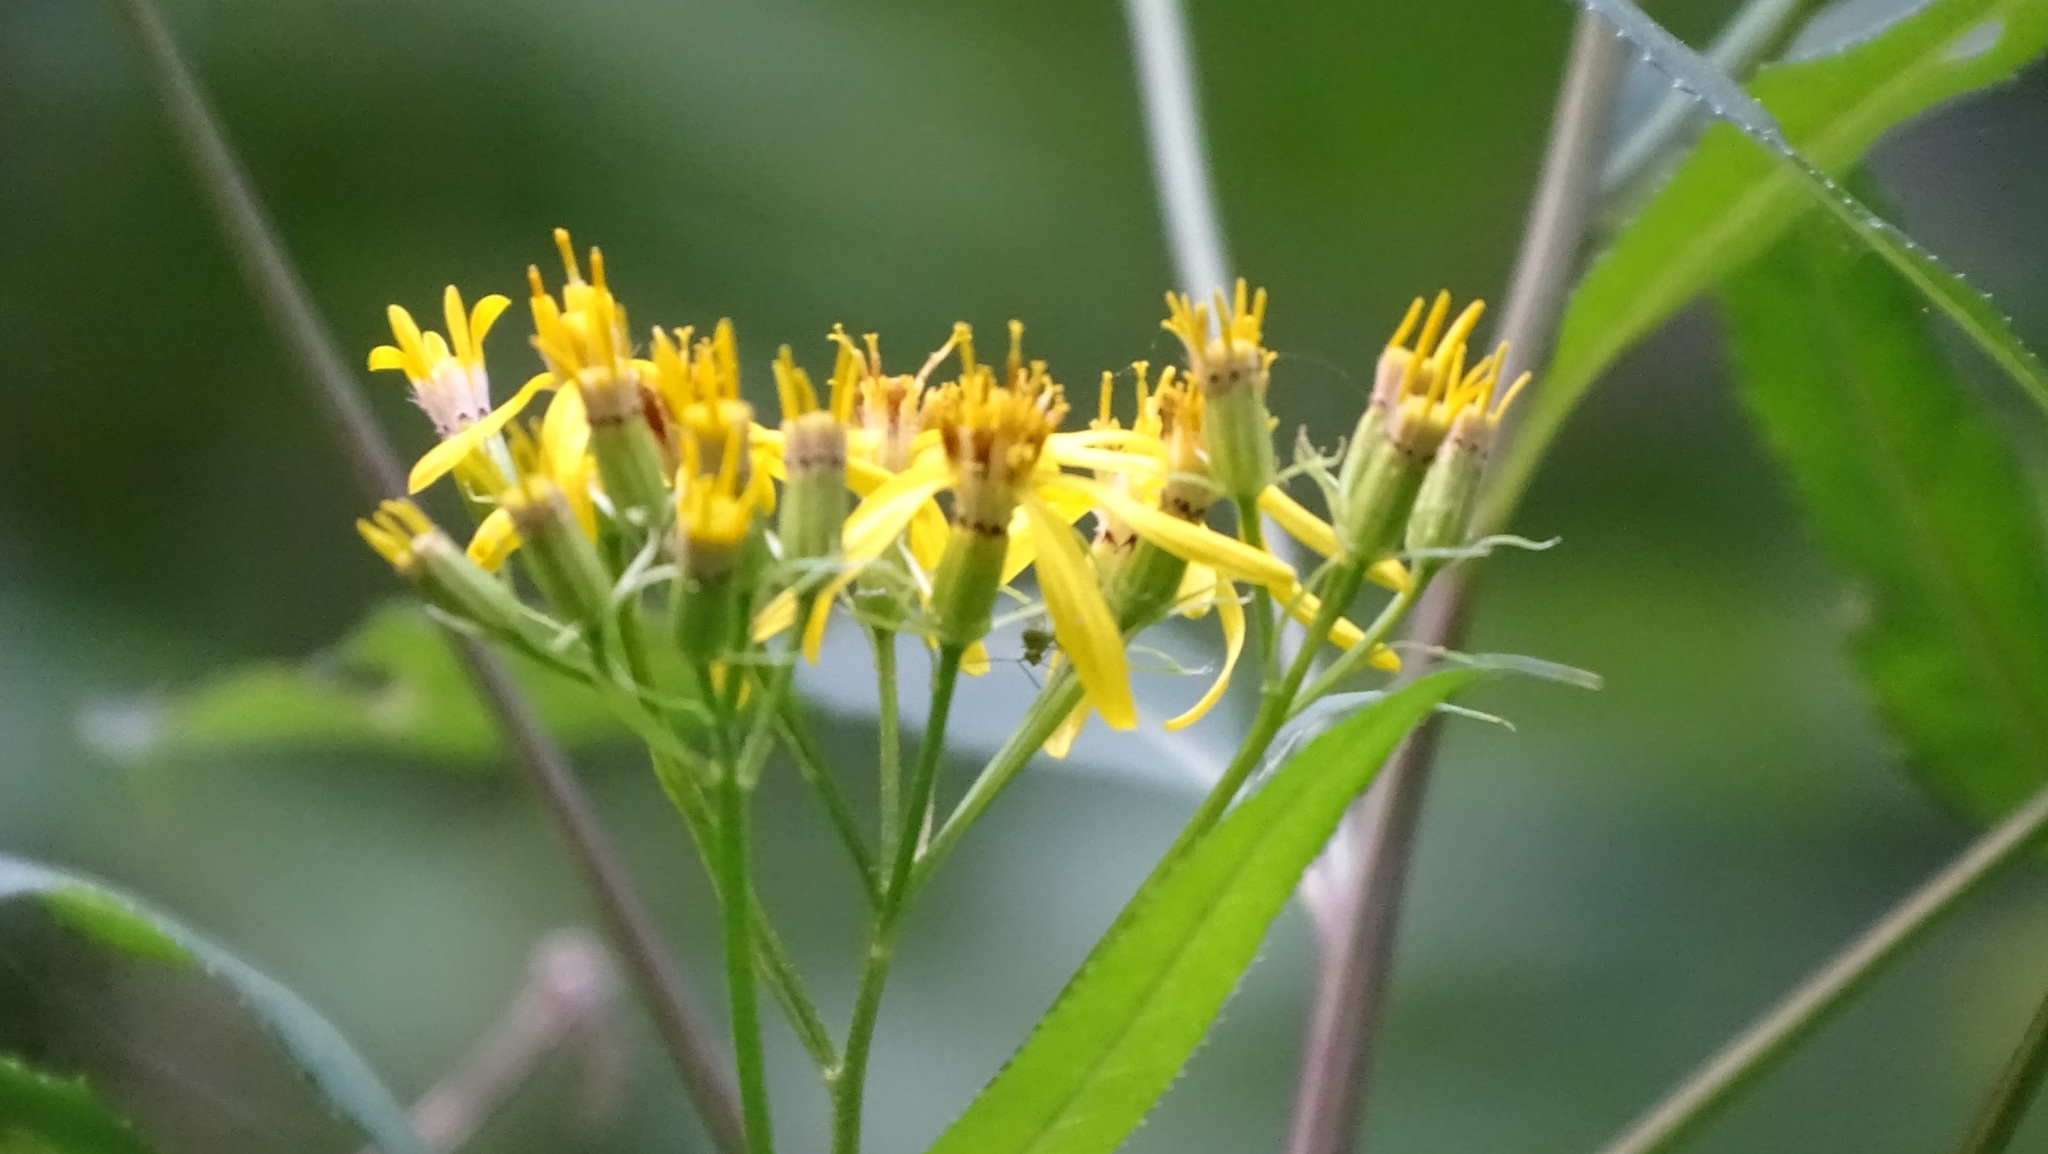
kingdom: Plantae
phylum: Tracheophyta
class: Magnoliopsida
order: Asterales
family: Asteraceae
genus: Senecio
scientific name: Senecio ovatus
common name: Wood ragwort
